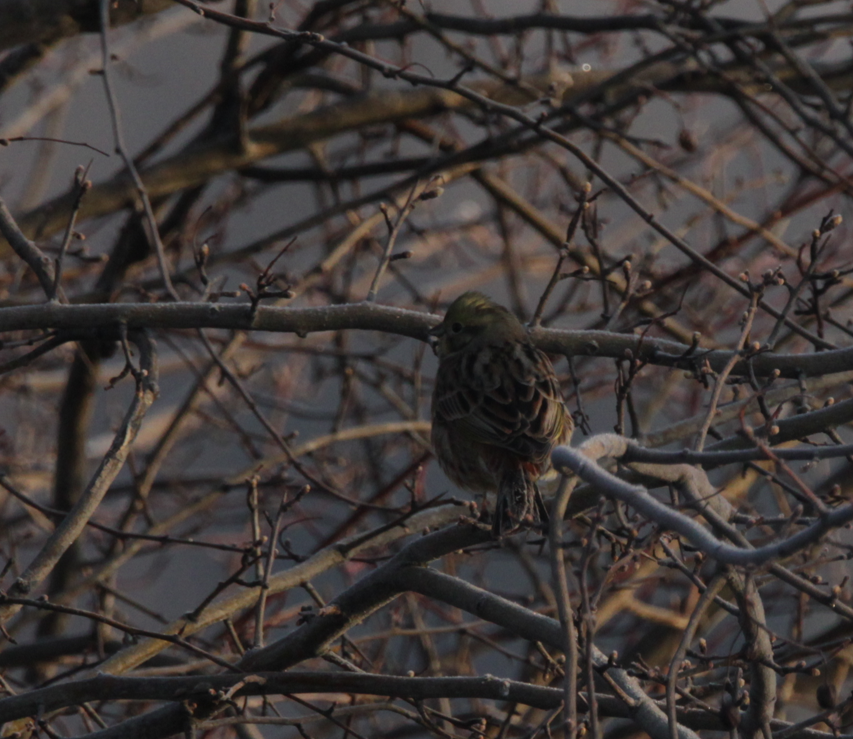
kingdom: Animalia
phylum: Chordata
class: Aves
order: Passeriformes
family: Emberizidae
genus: Emberiza
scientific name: Emberiza citrinella
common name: Yellowhammer
